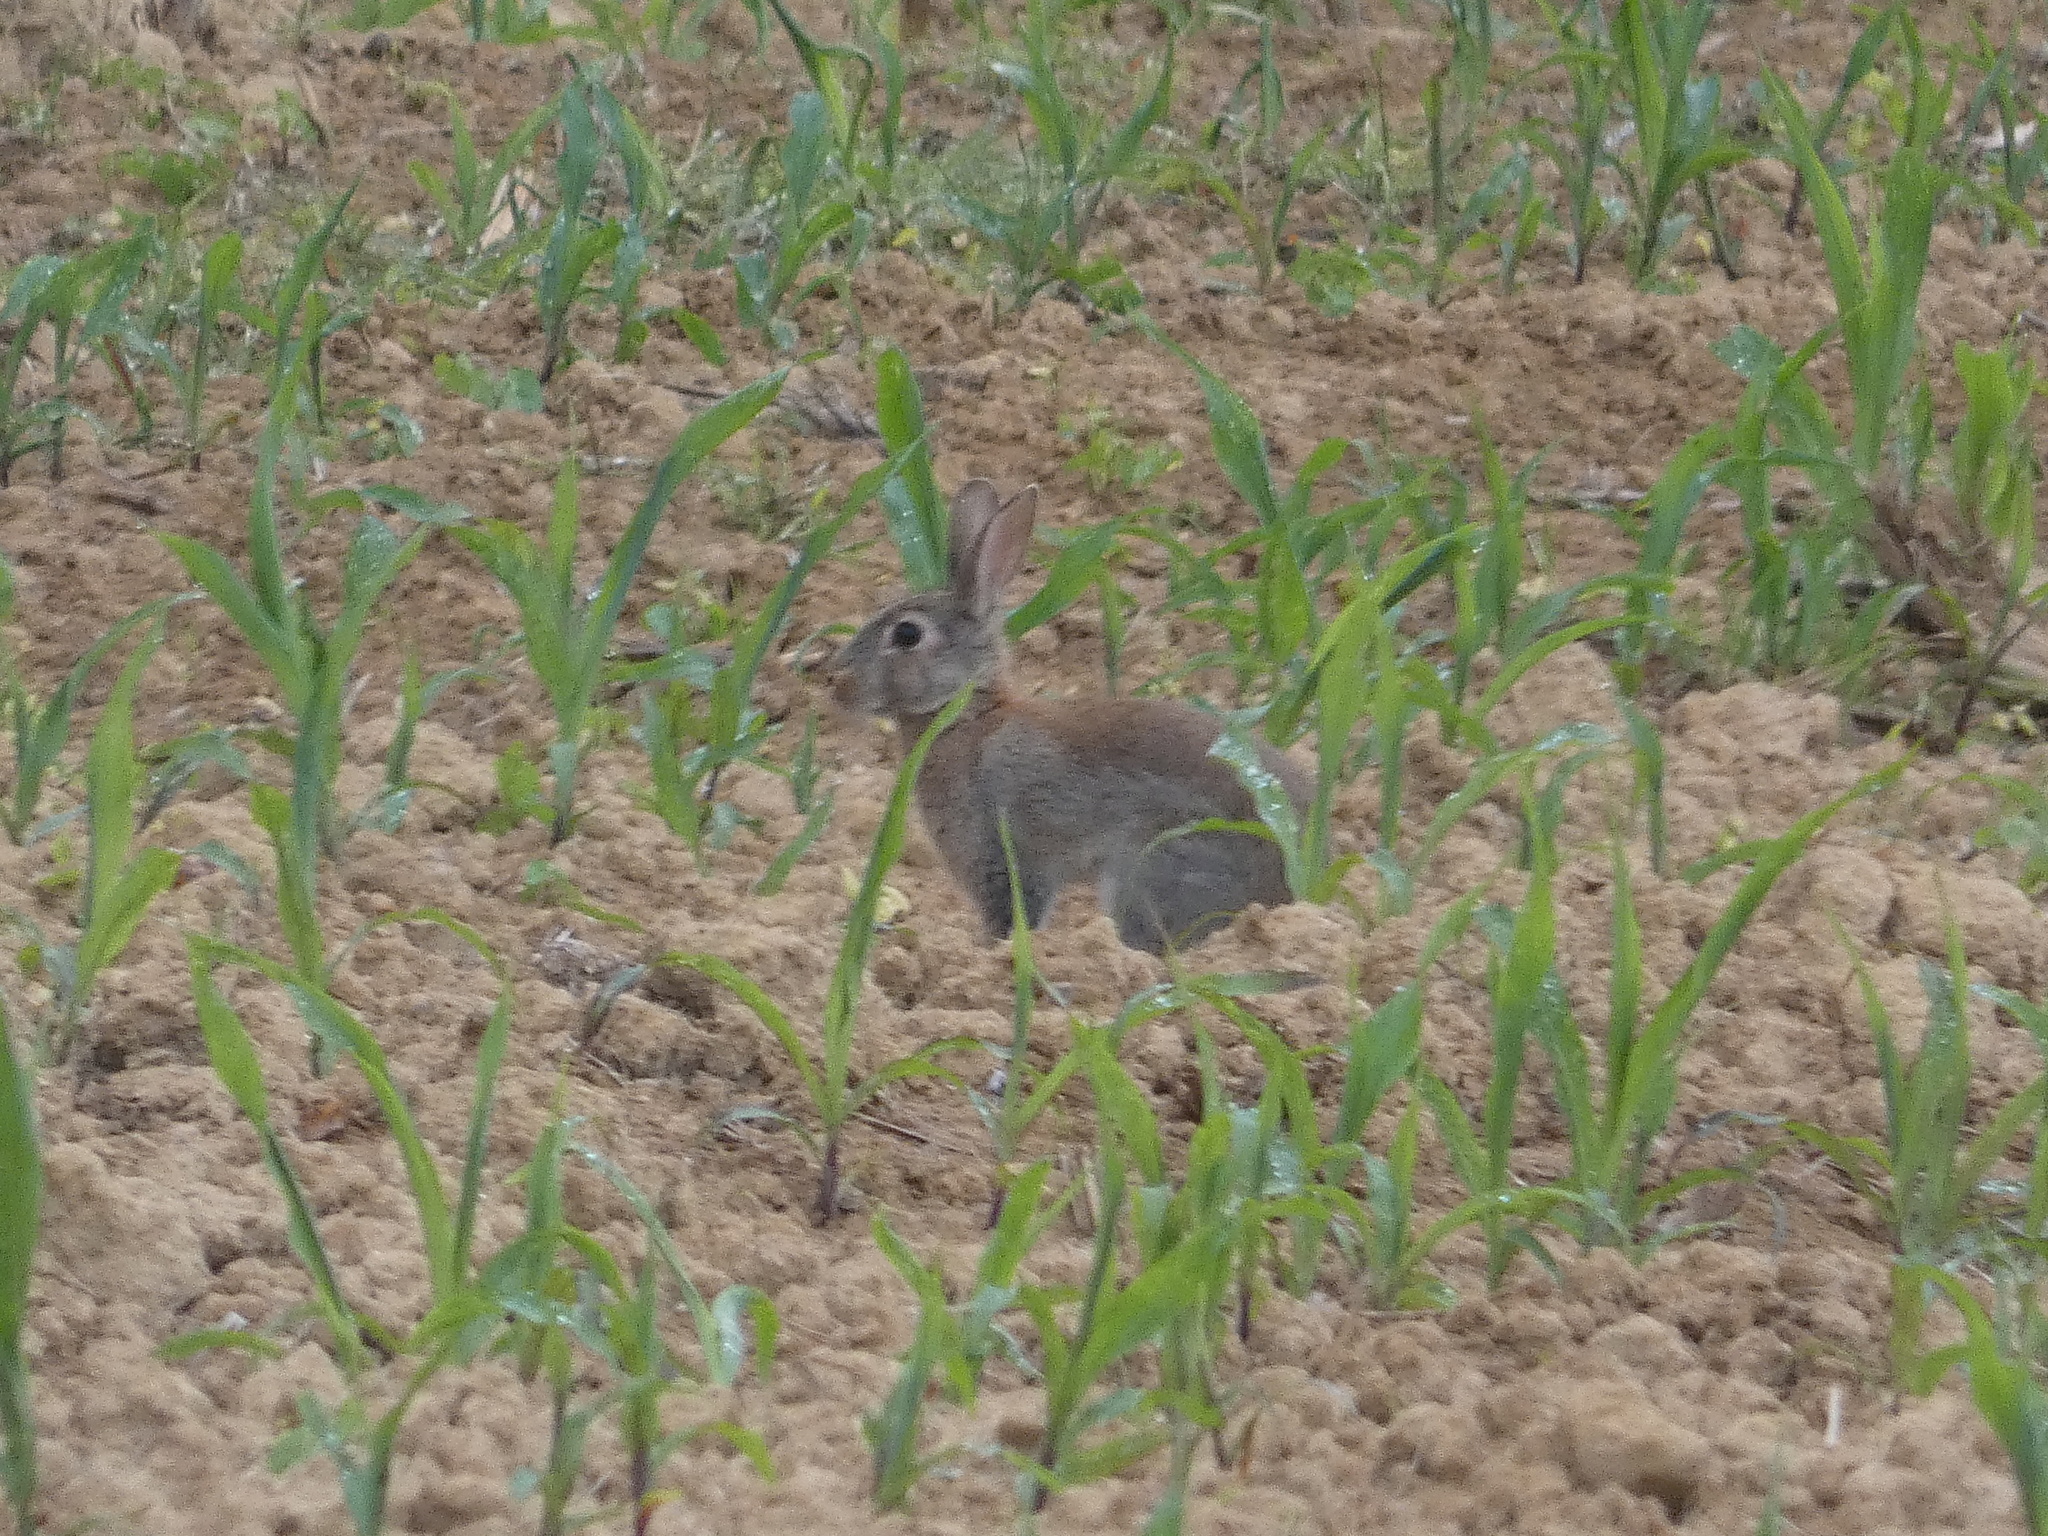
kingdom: Animalia
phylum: Chordata
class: Mammalia
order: Lagomorpha
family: Leporidae
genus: Oryctolagus
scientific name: Oryctolagus cuniculus
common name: European rabbit
